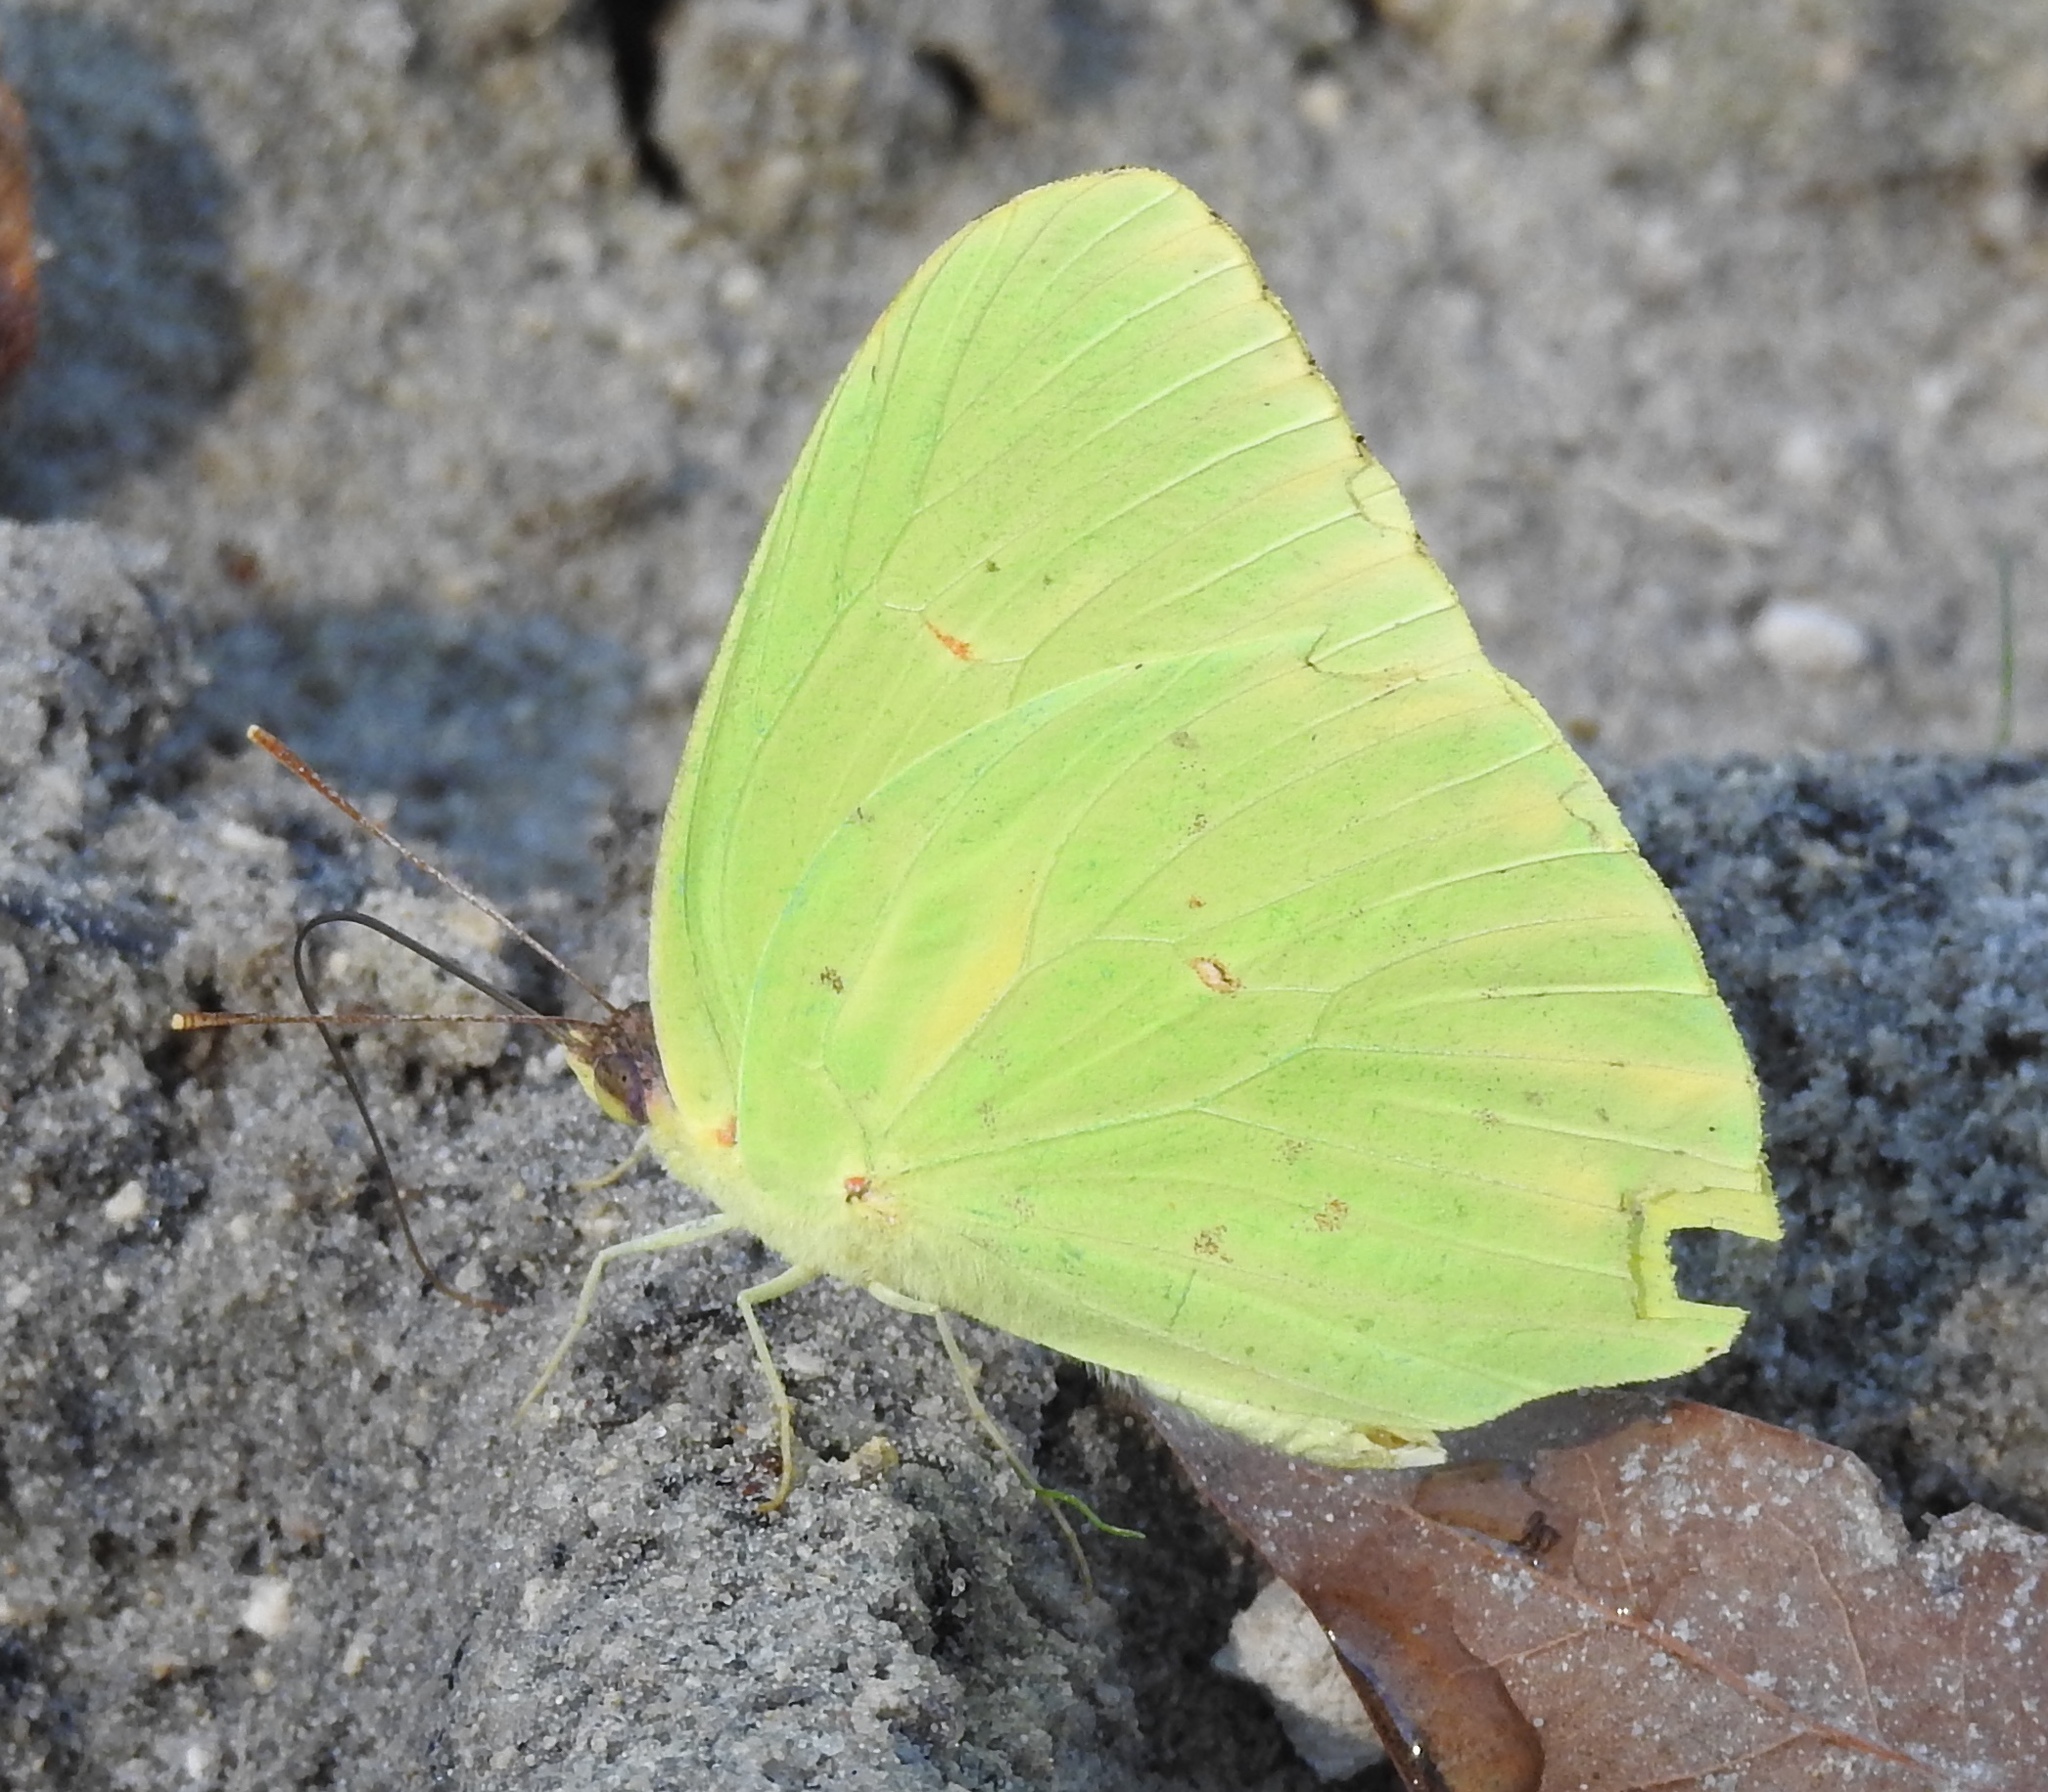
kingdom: Animalia
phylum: Arthropoda
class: Insecta
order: Lepidoptera
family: Pieridae
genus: Phoebis
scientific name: Phoebis sennae
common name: Cloudless sulphur
